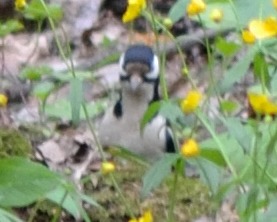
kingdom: Animalia
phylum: Chordata
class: Aves
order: Piciformes
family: Picidae
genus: Dendrocopos
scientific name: Dendrocopos major
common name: Great spotted woodpecker
